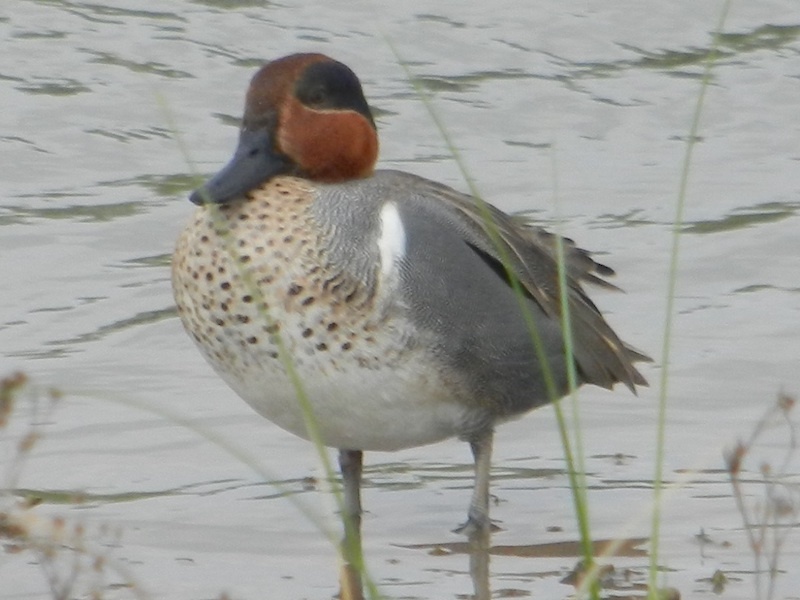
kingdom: Animalia
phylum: Chordata
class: Aves
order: Anseriformes
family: Anatidae
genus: Anas
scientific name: Anas carolinensis
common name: Green-winged teal
